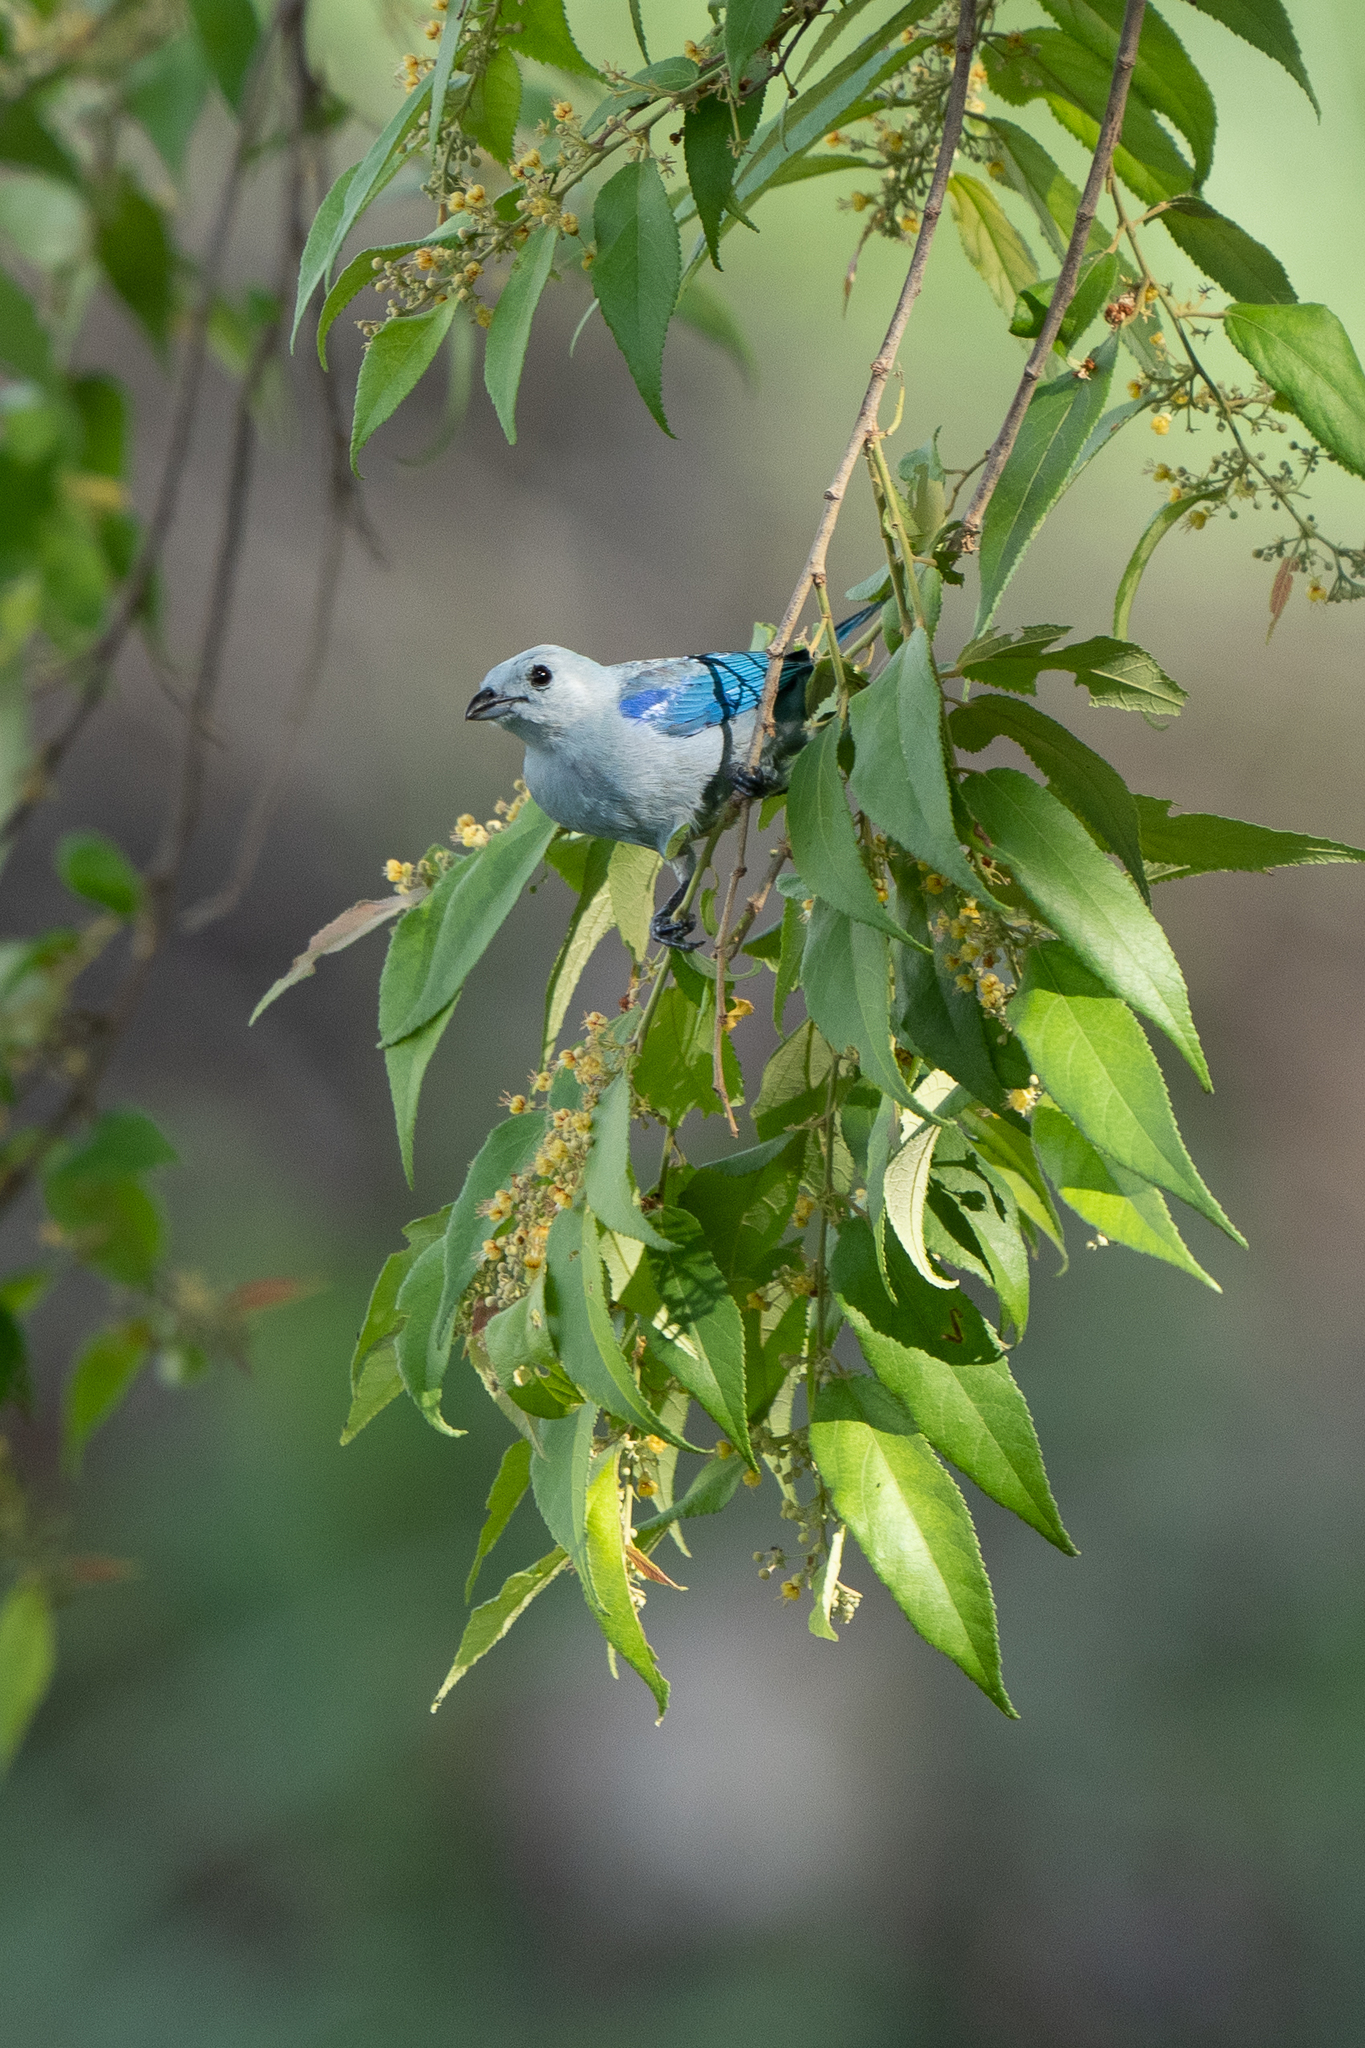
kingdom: Animalia
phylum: Chordata
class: Aves
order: Passeriformes
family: Thraupidae
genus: Thraupis
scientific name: Thraupis episcopus
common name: Blue-grey tanager
